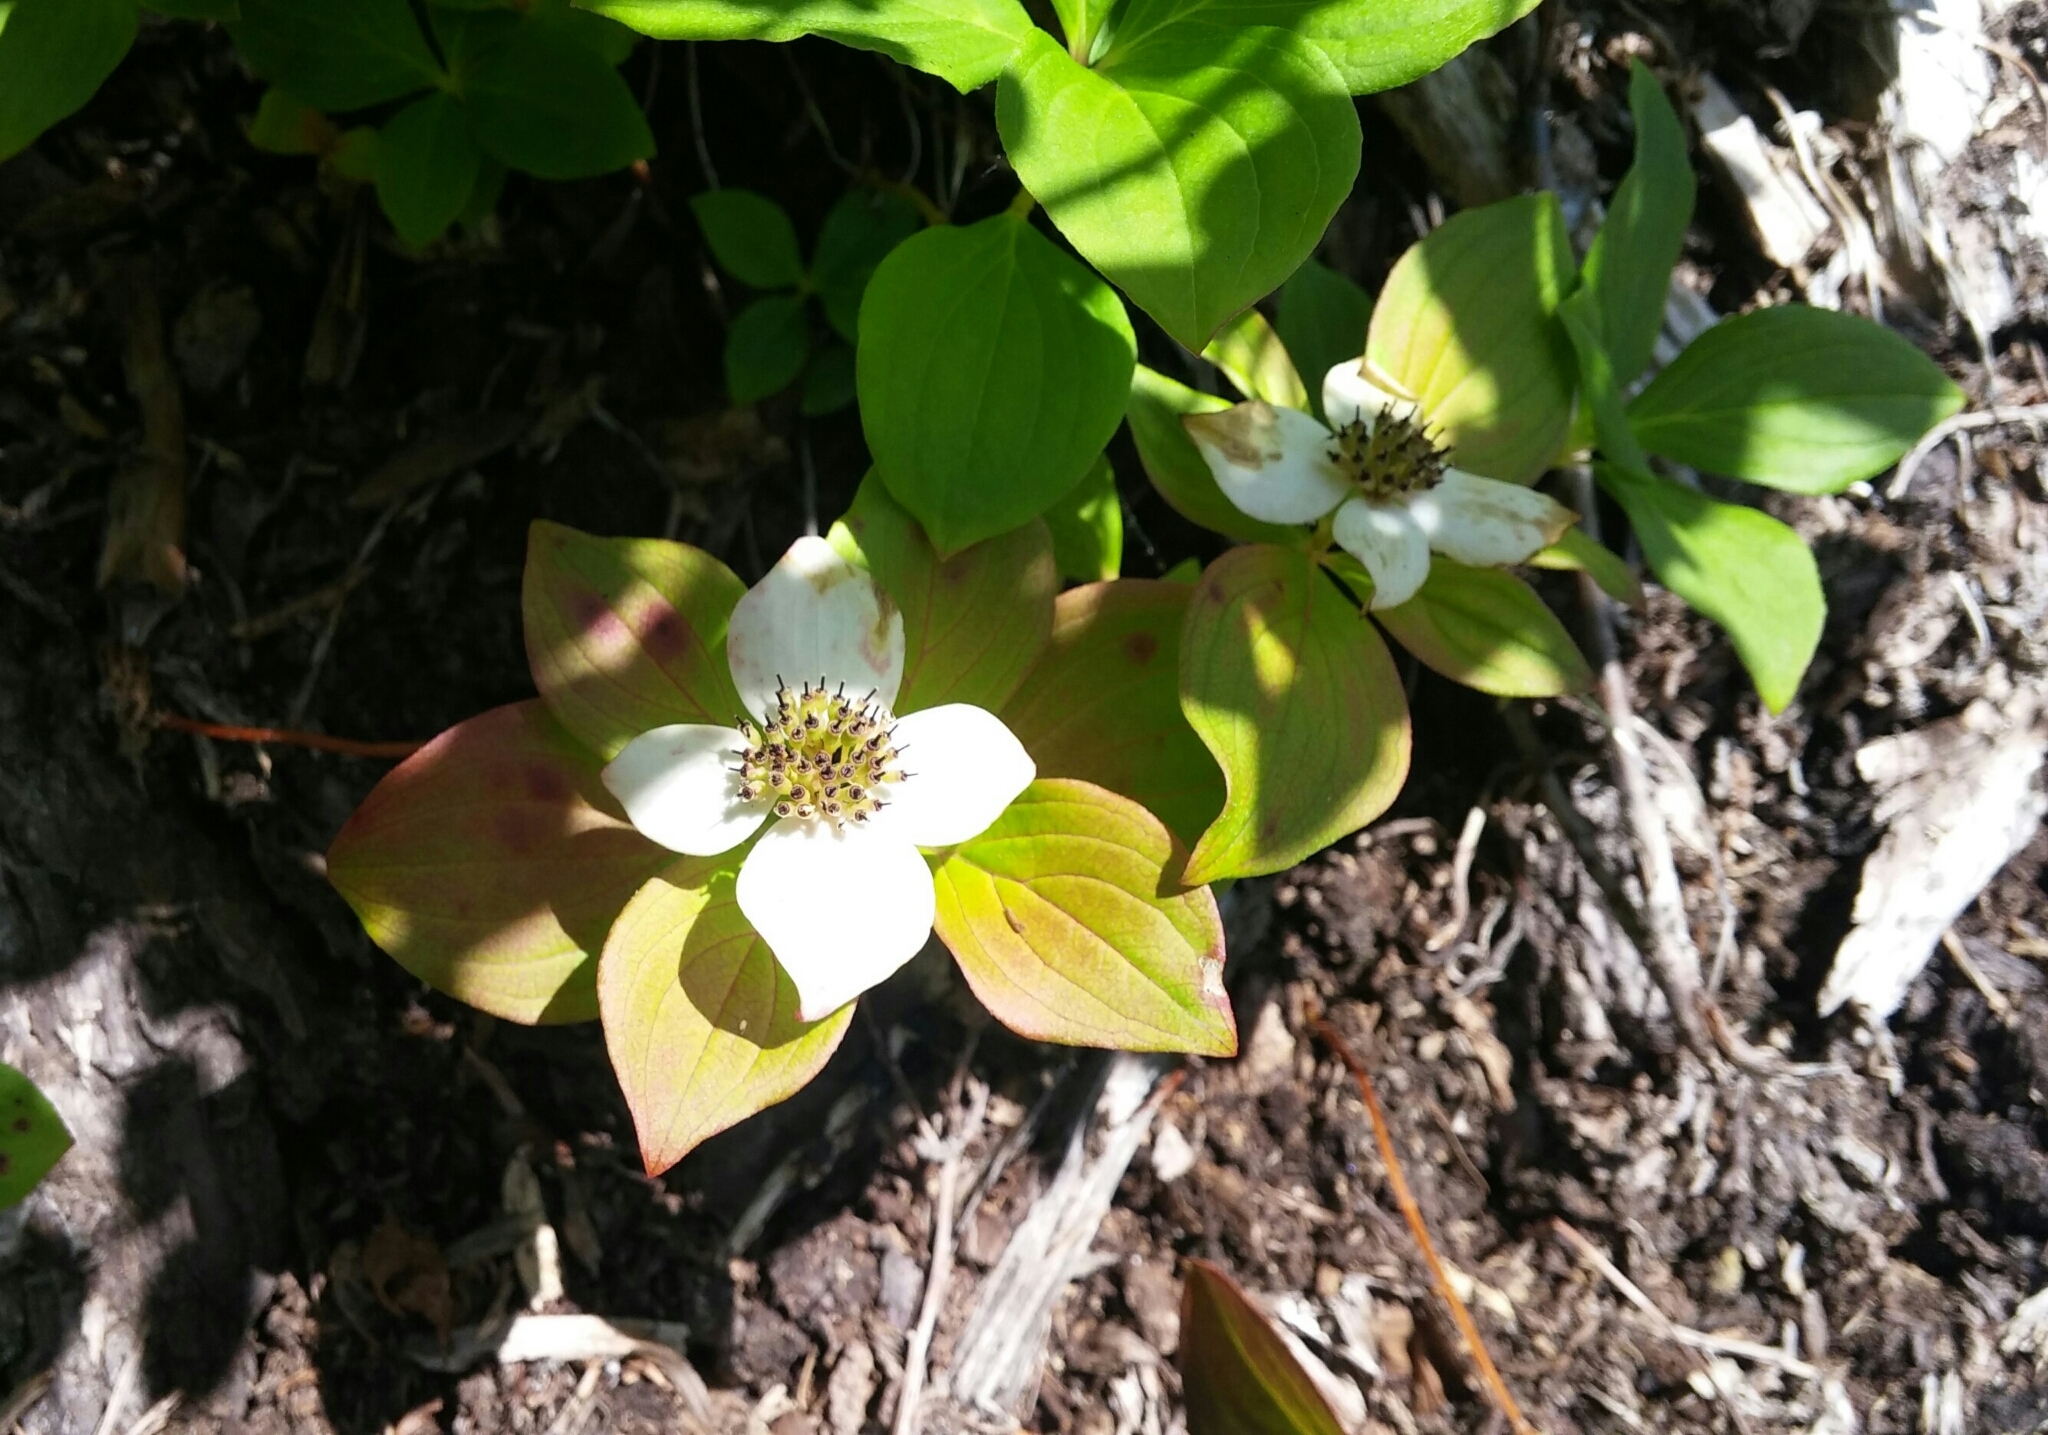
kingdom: Plantae
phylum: Tracheophyta
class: Magnoliopsida
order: Cornales
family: Cornaceae
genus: Cornus
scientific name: Cornus unalaschkensis
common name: Alaska bunchberry
